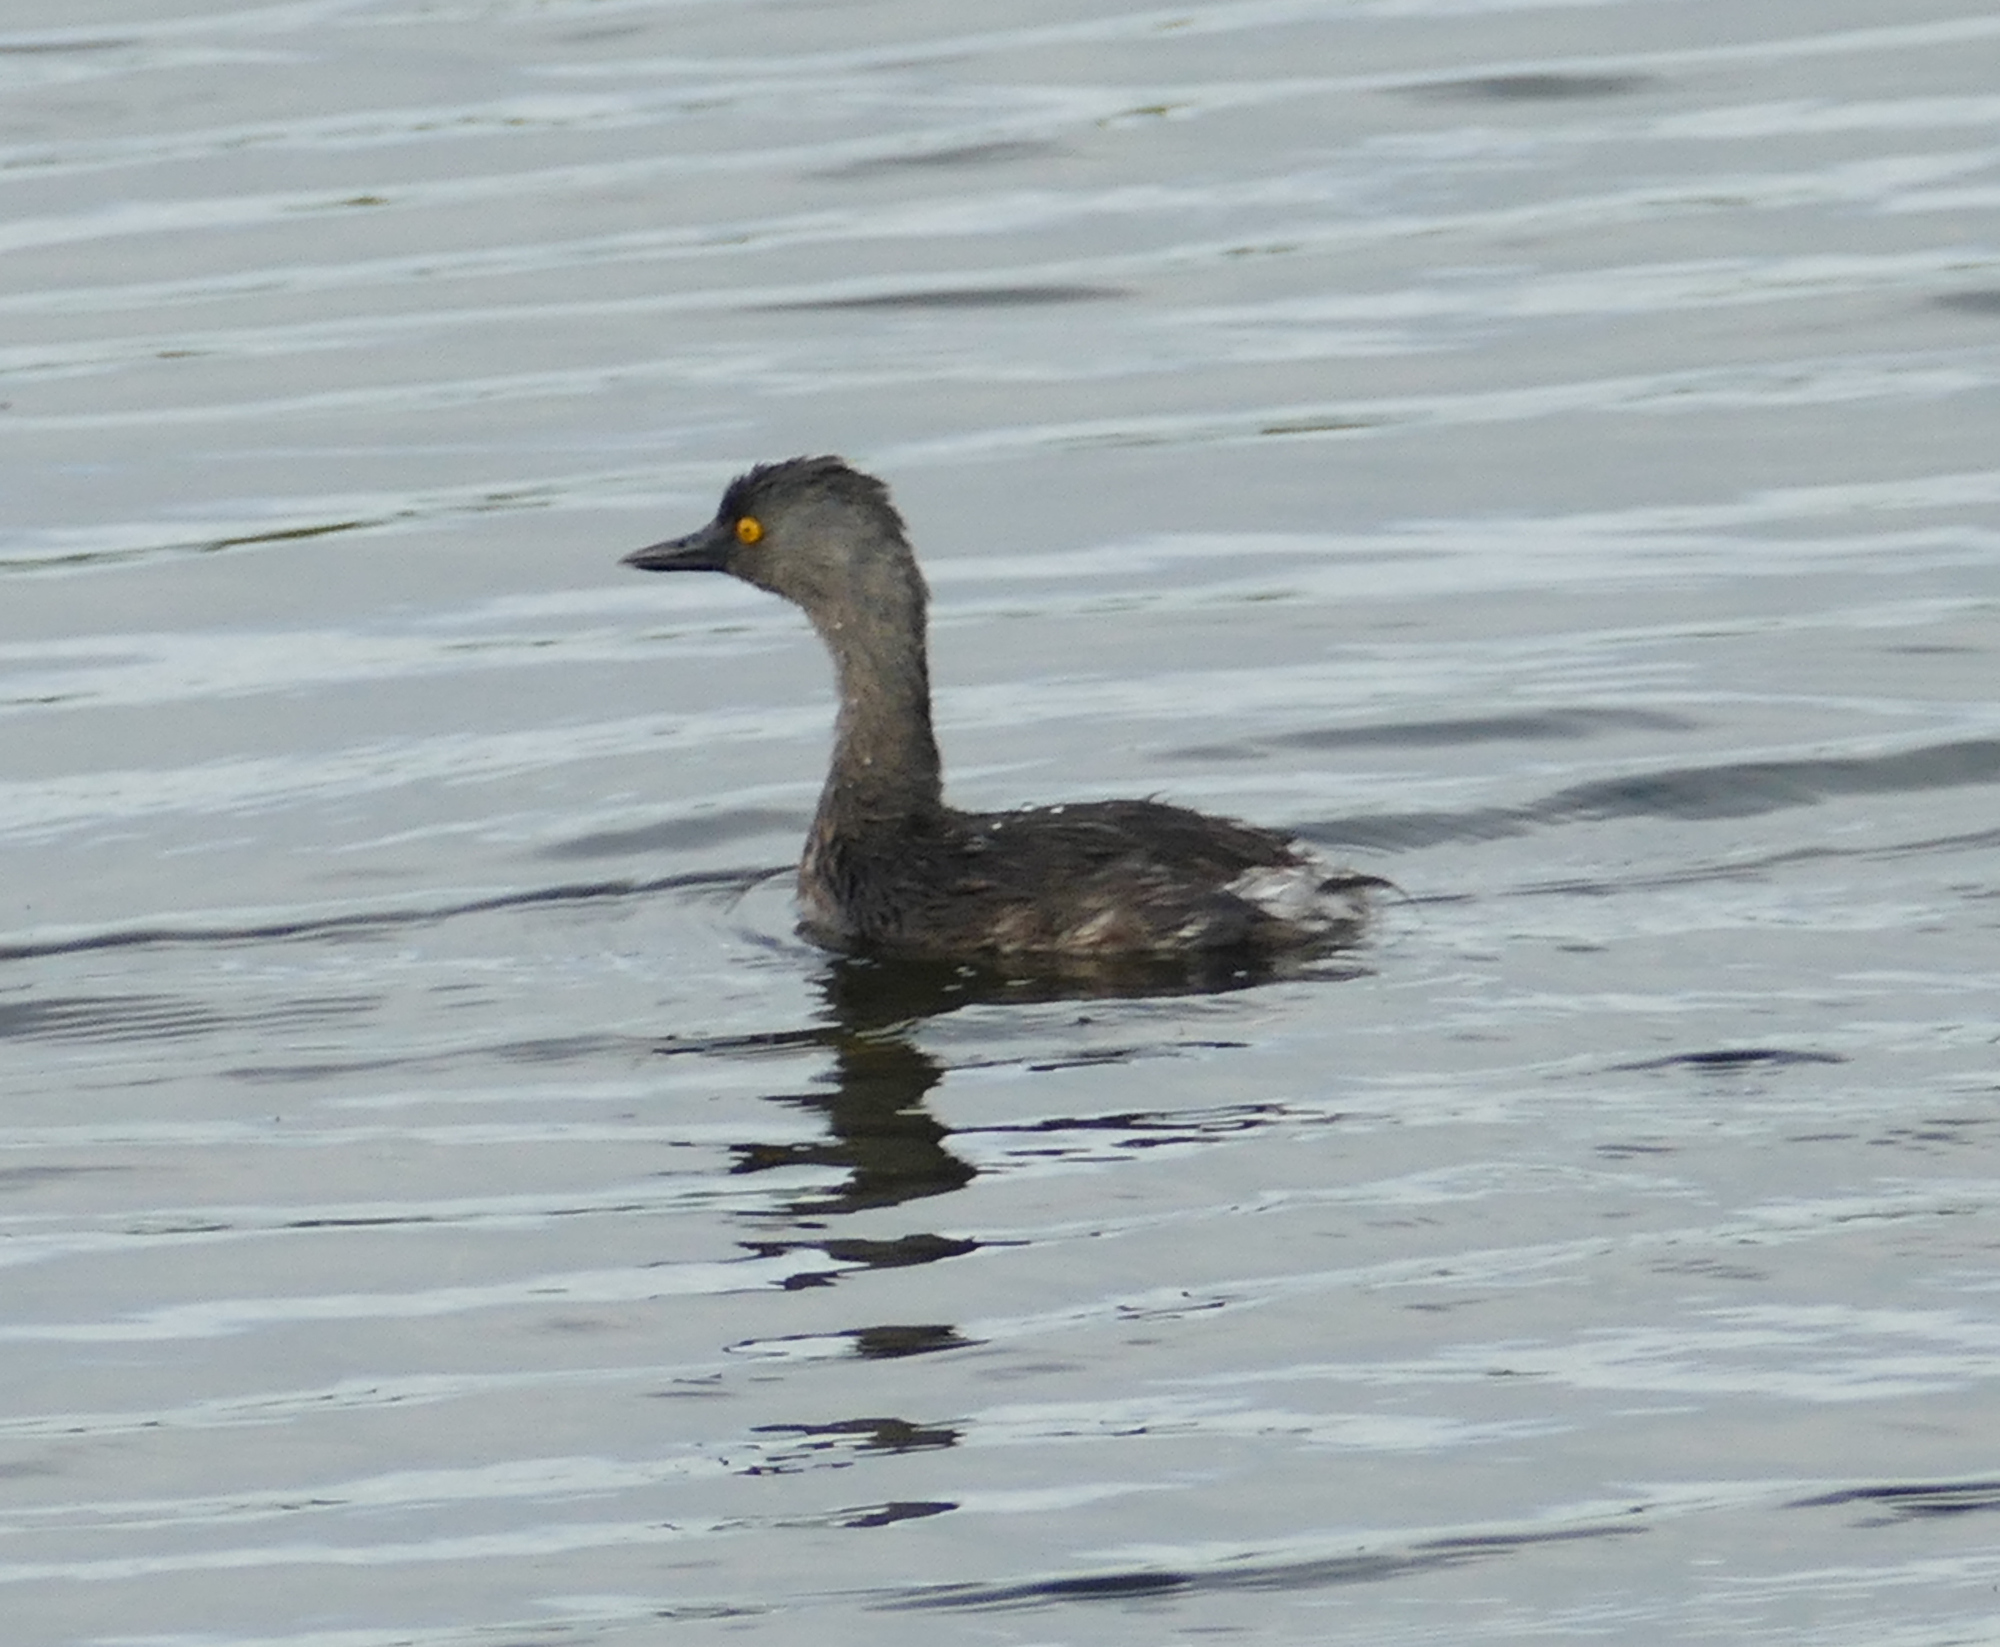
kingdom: Animalia
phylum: Chordata
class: Aves
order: Podicipediformes
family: Podicipedidae
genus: Tachybaptus
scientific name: Tachybaptus dominicus
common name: Least grebe
